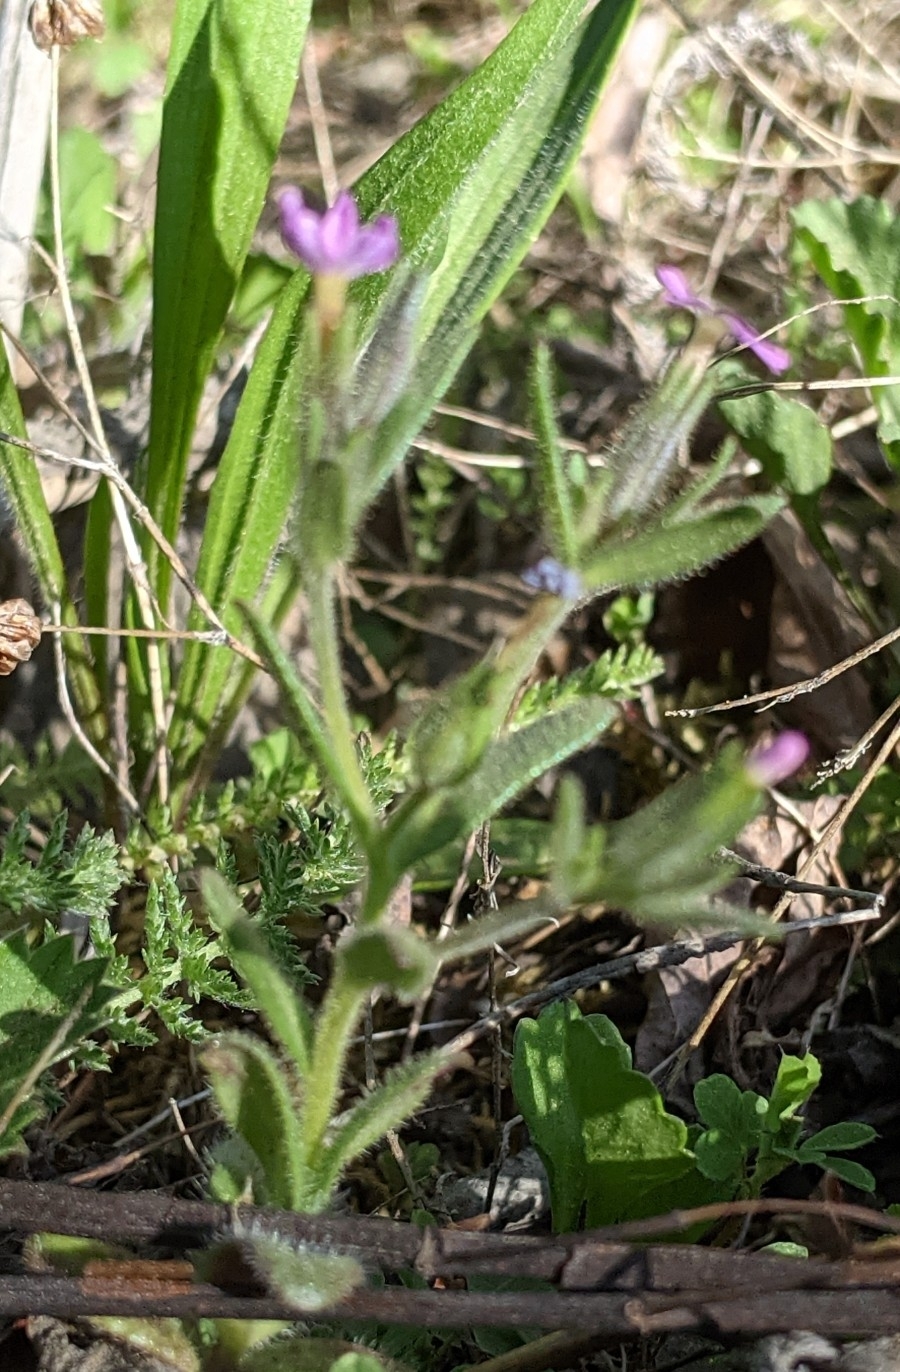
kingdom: Plantae
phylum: Tracheophyta
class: Magnoliopsida
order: Ericales
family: Polemoniaceae
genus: Phlox
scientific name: Phlox gracilis
